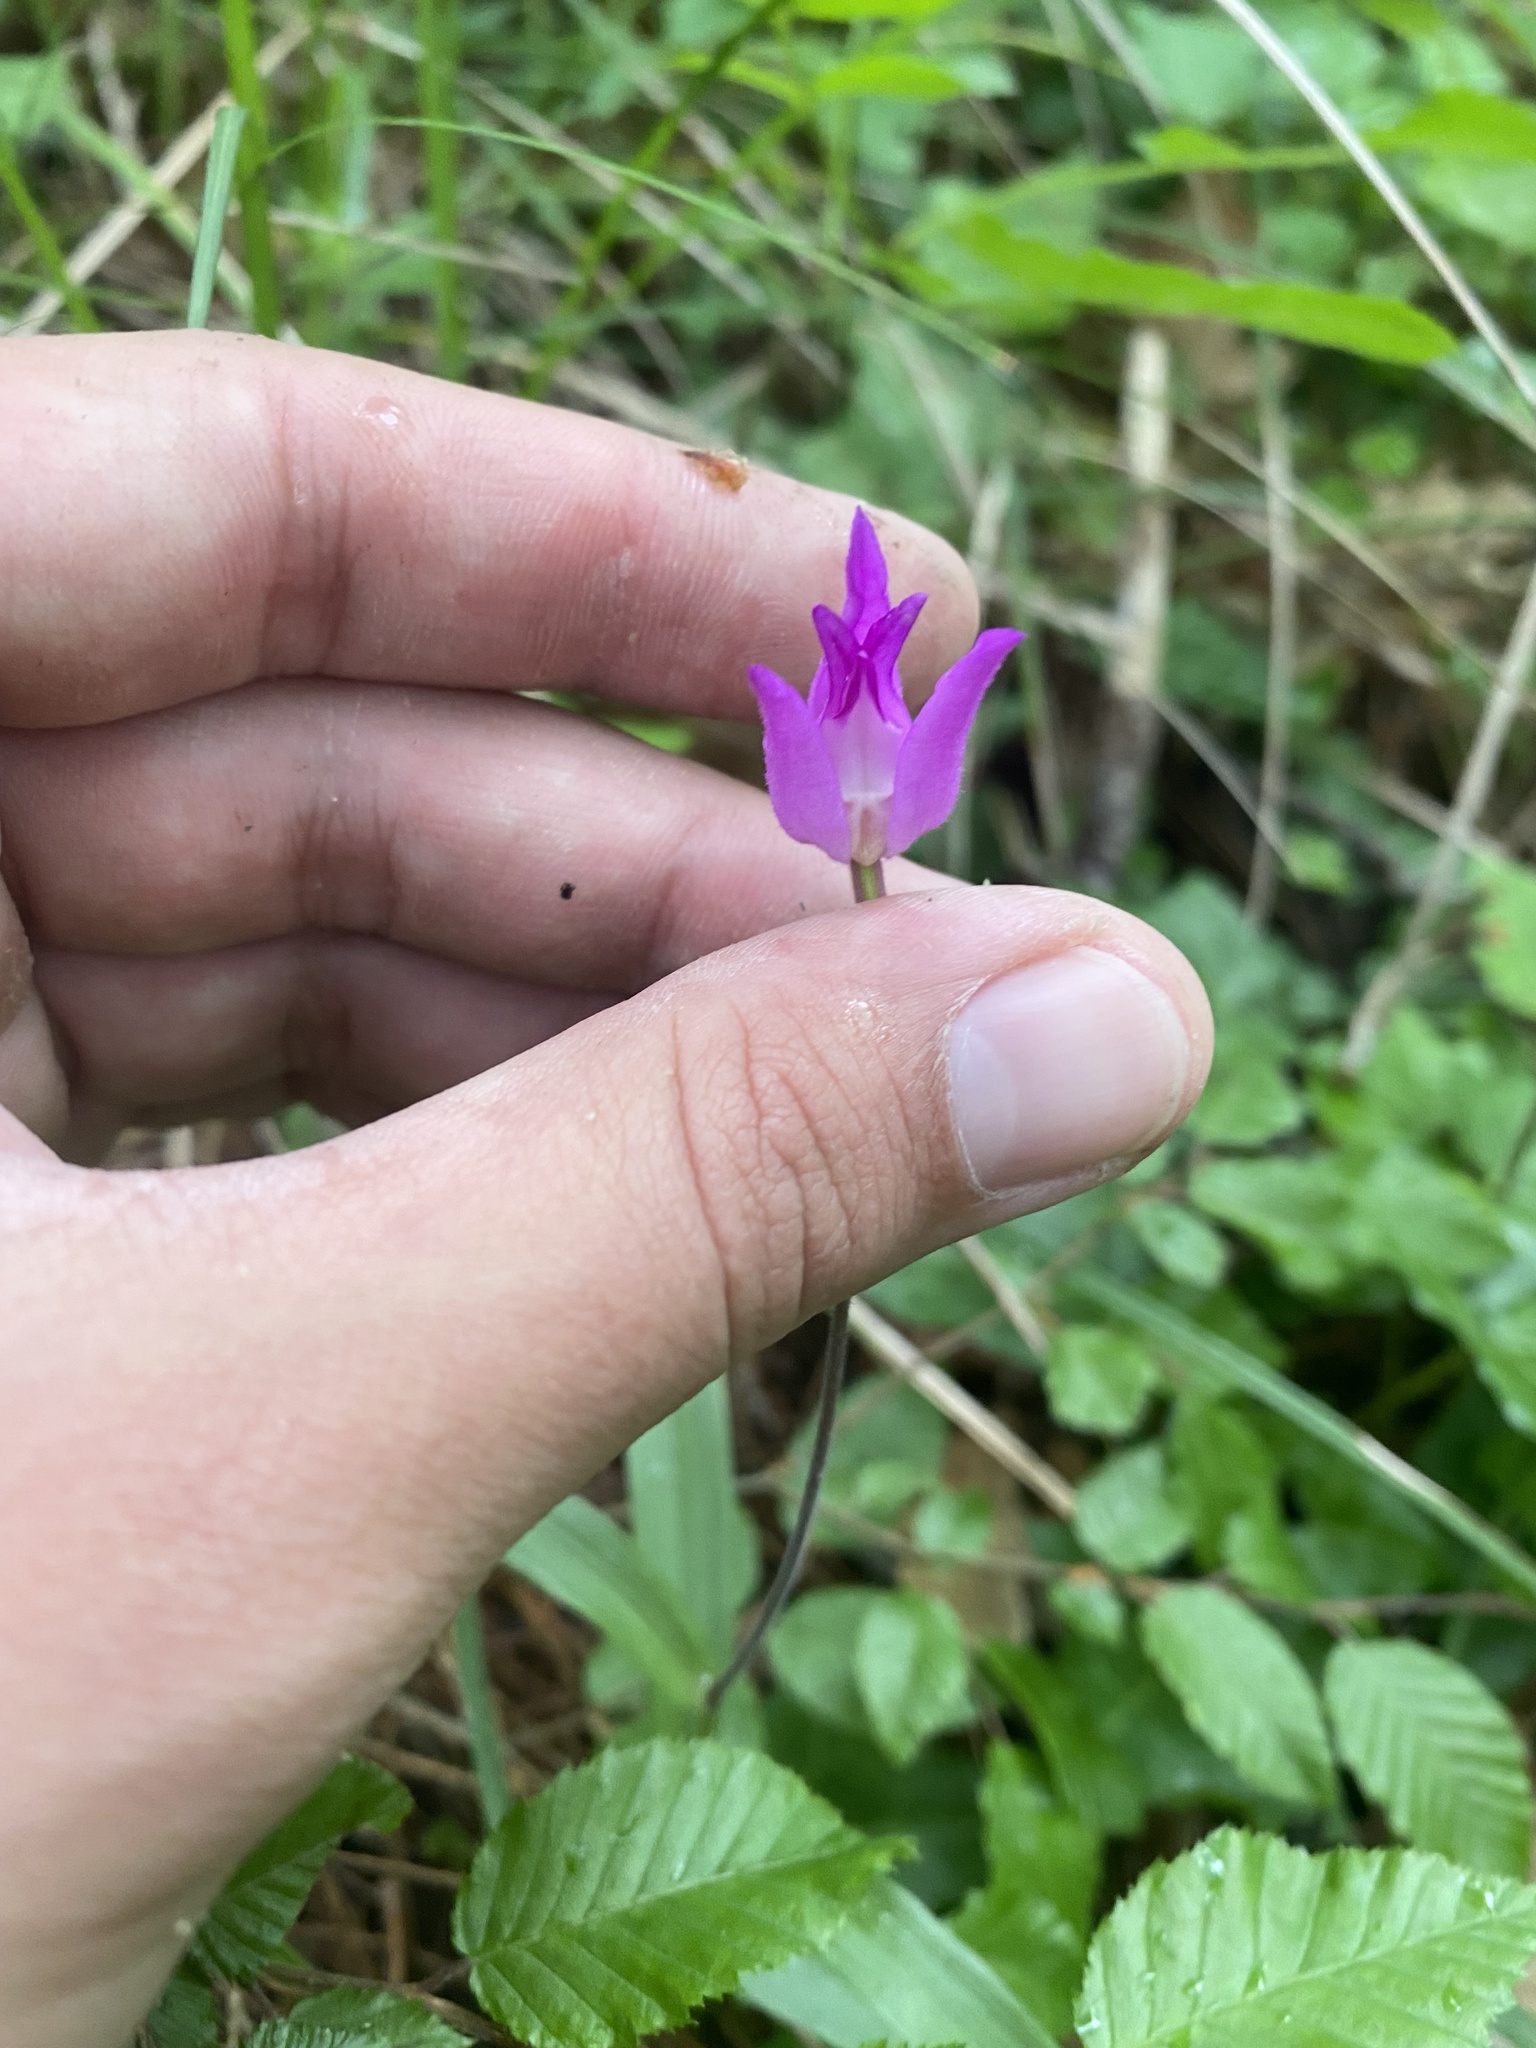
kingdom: Plantae
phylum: Tracheophyta
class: Liliopsida
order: Asparagales
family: Orchidaceae
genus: Cephalanthera
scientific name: Cephalanthera rubra
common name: Red helleborine
